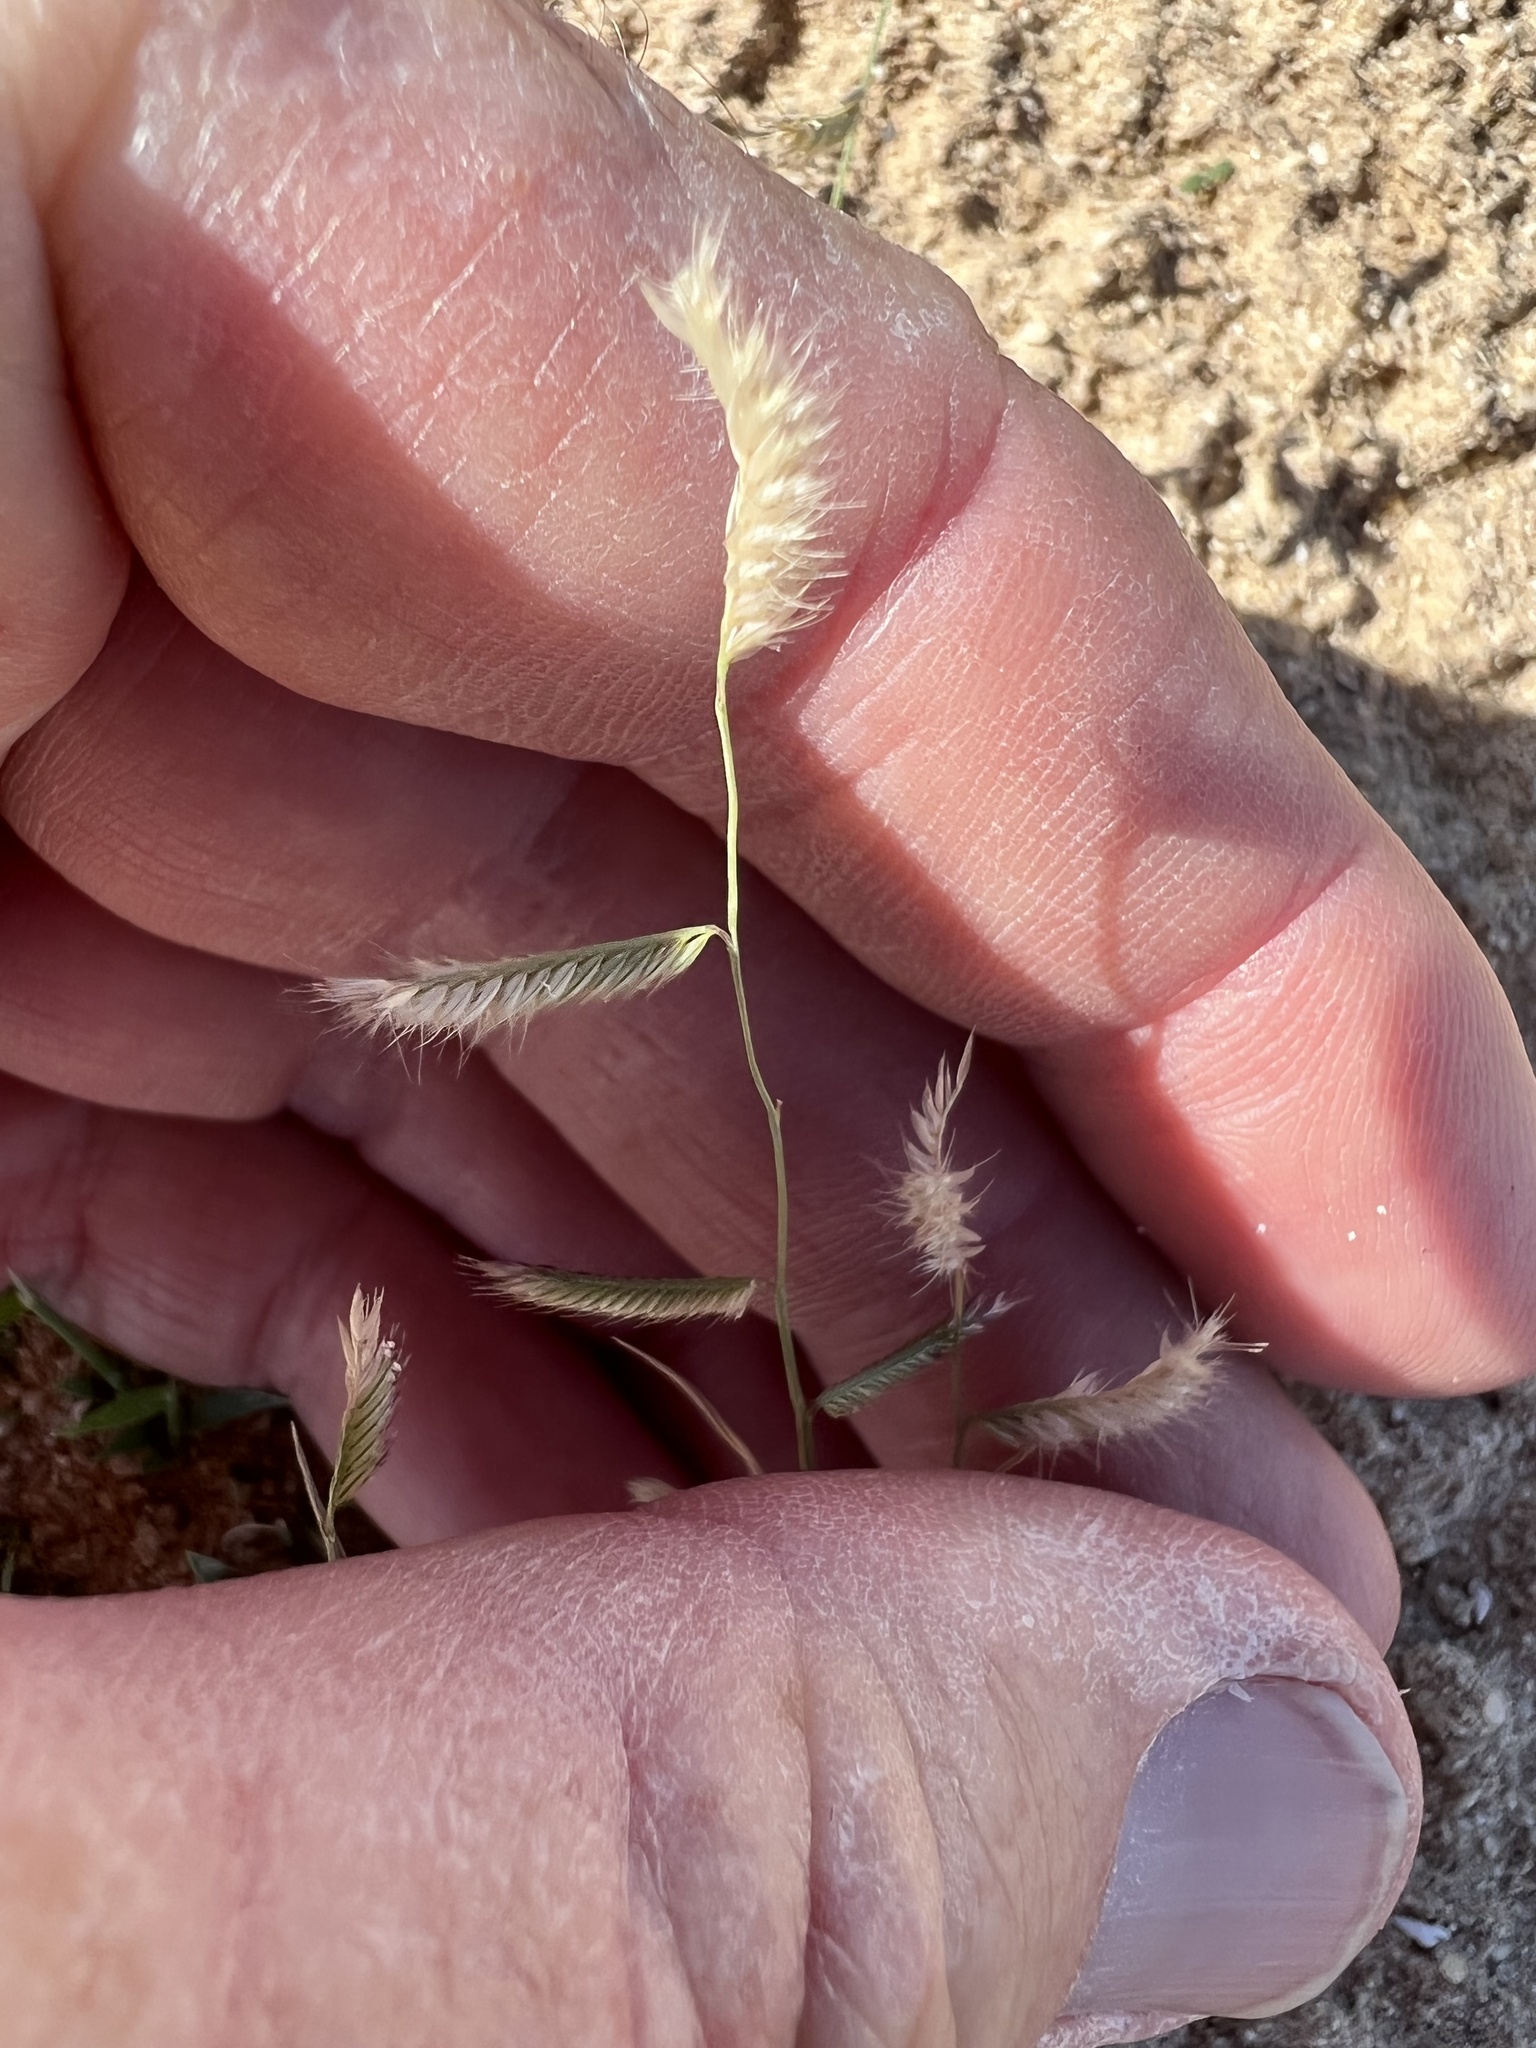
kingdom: Plantae
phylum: Tracheophyta
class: Liliopsida
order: Poales
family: Poaceae
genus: Bouteloua
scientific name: Bouteloua barbata
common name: Six-weeks grama
